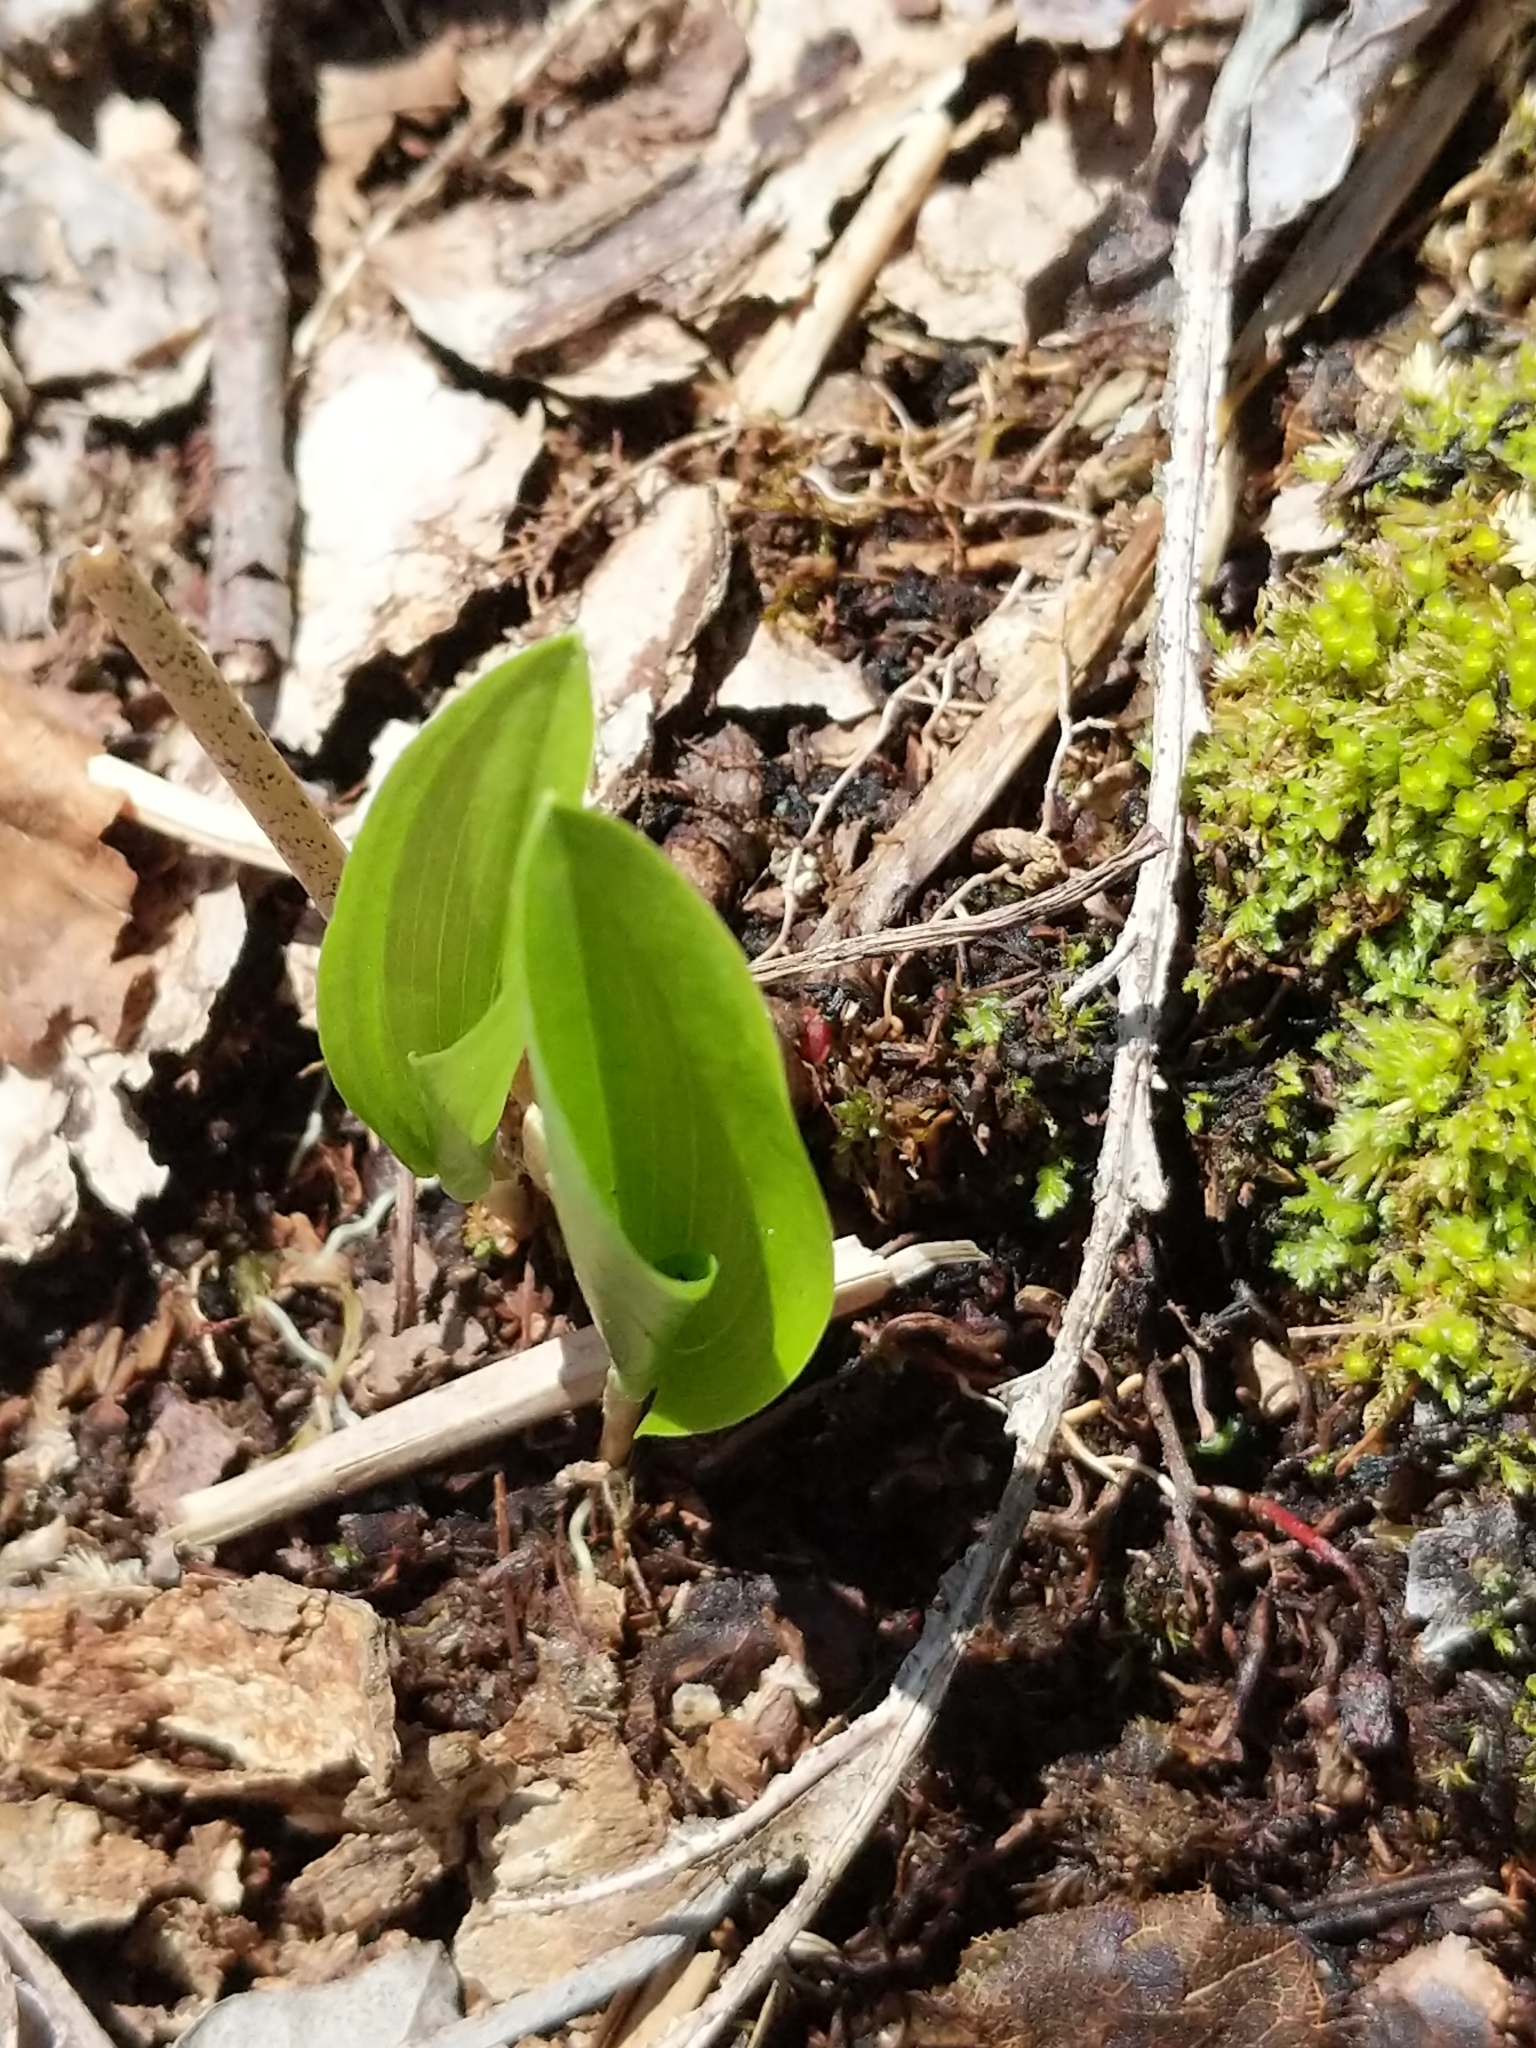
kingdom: Plantae
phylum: Tracheophyta
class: Liliopsida
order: Asparagales
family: Asparagaceae
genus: Maianthemum
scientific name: Maianthemum canadense
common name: False lily-of-the-valley
